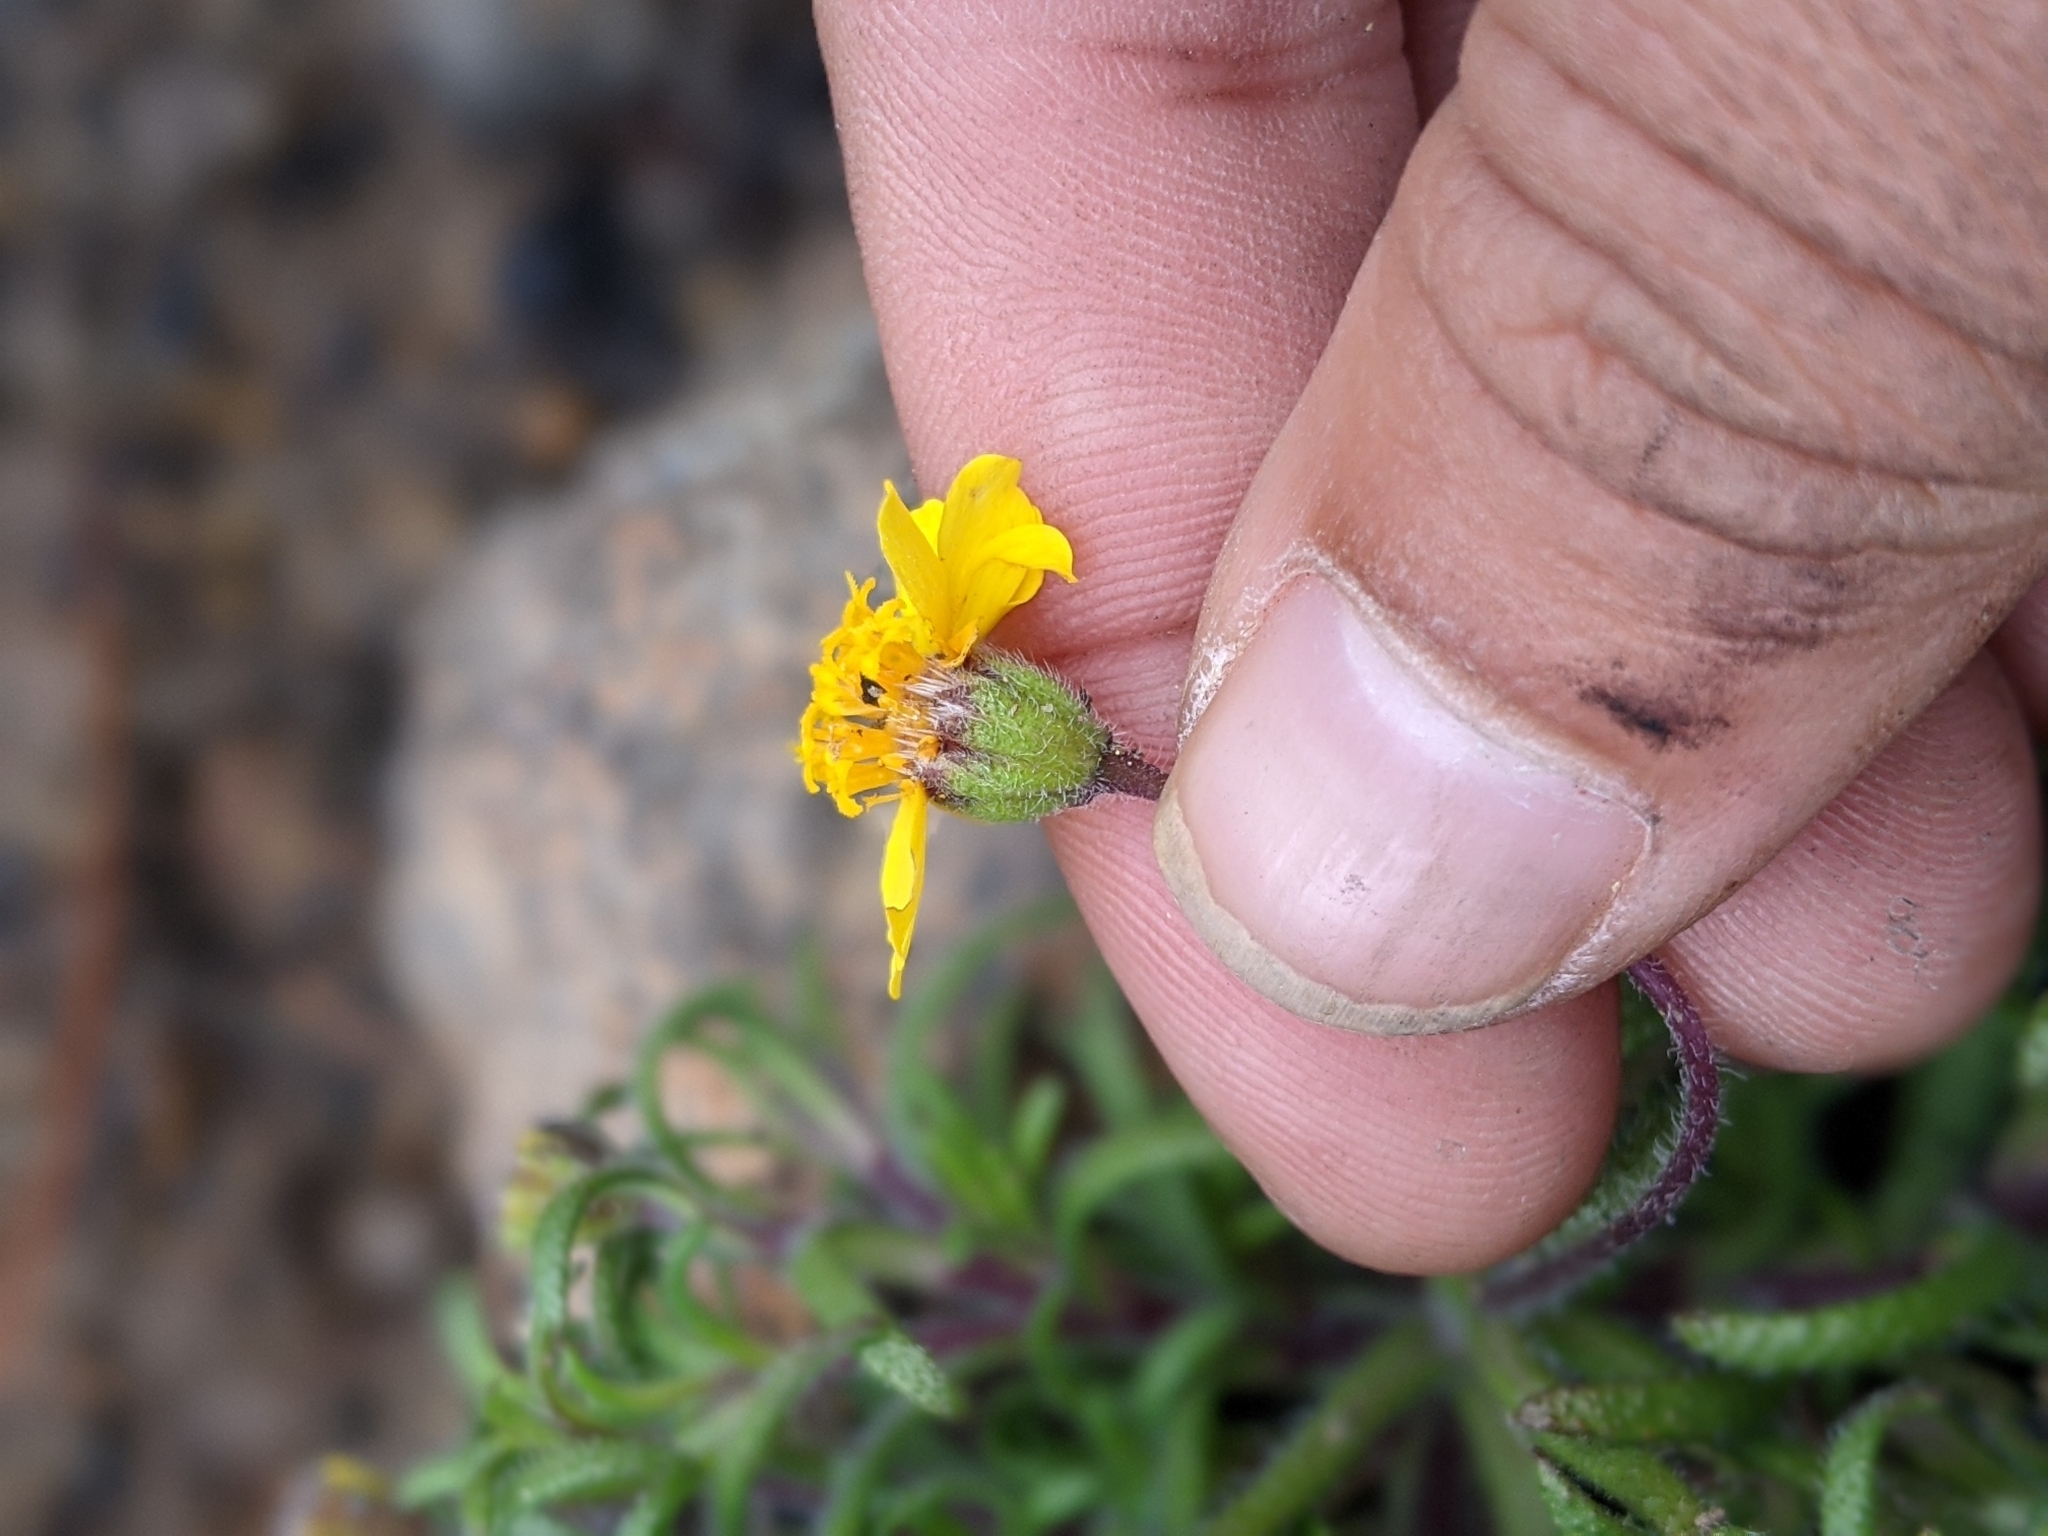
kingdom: Plantae
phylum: Tracheophyta
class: Magnoliopsida
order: Asterales
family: Asteraceae
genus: Harmonia
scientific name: Harmonia nutans
